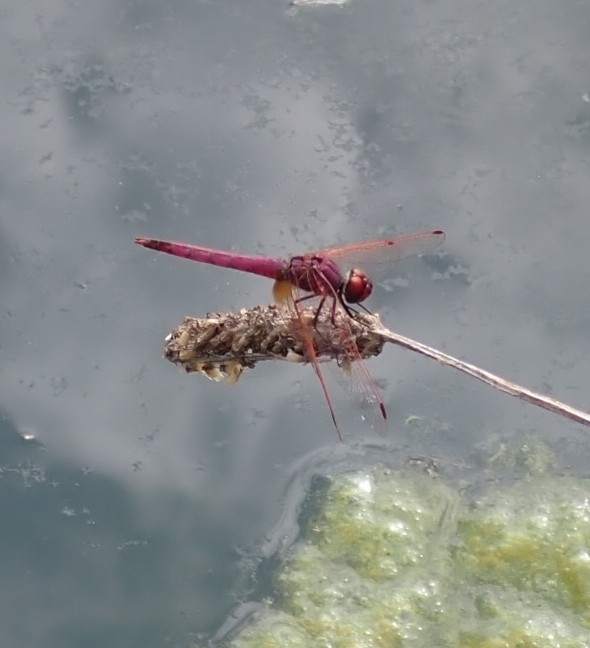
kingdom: Animalia
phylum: Arthropoda
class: Insecta
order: Odonata
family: Libellulidae
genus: Trithemis
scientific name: Trithemis annulata
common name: Violet dropwing
